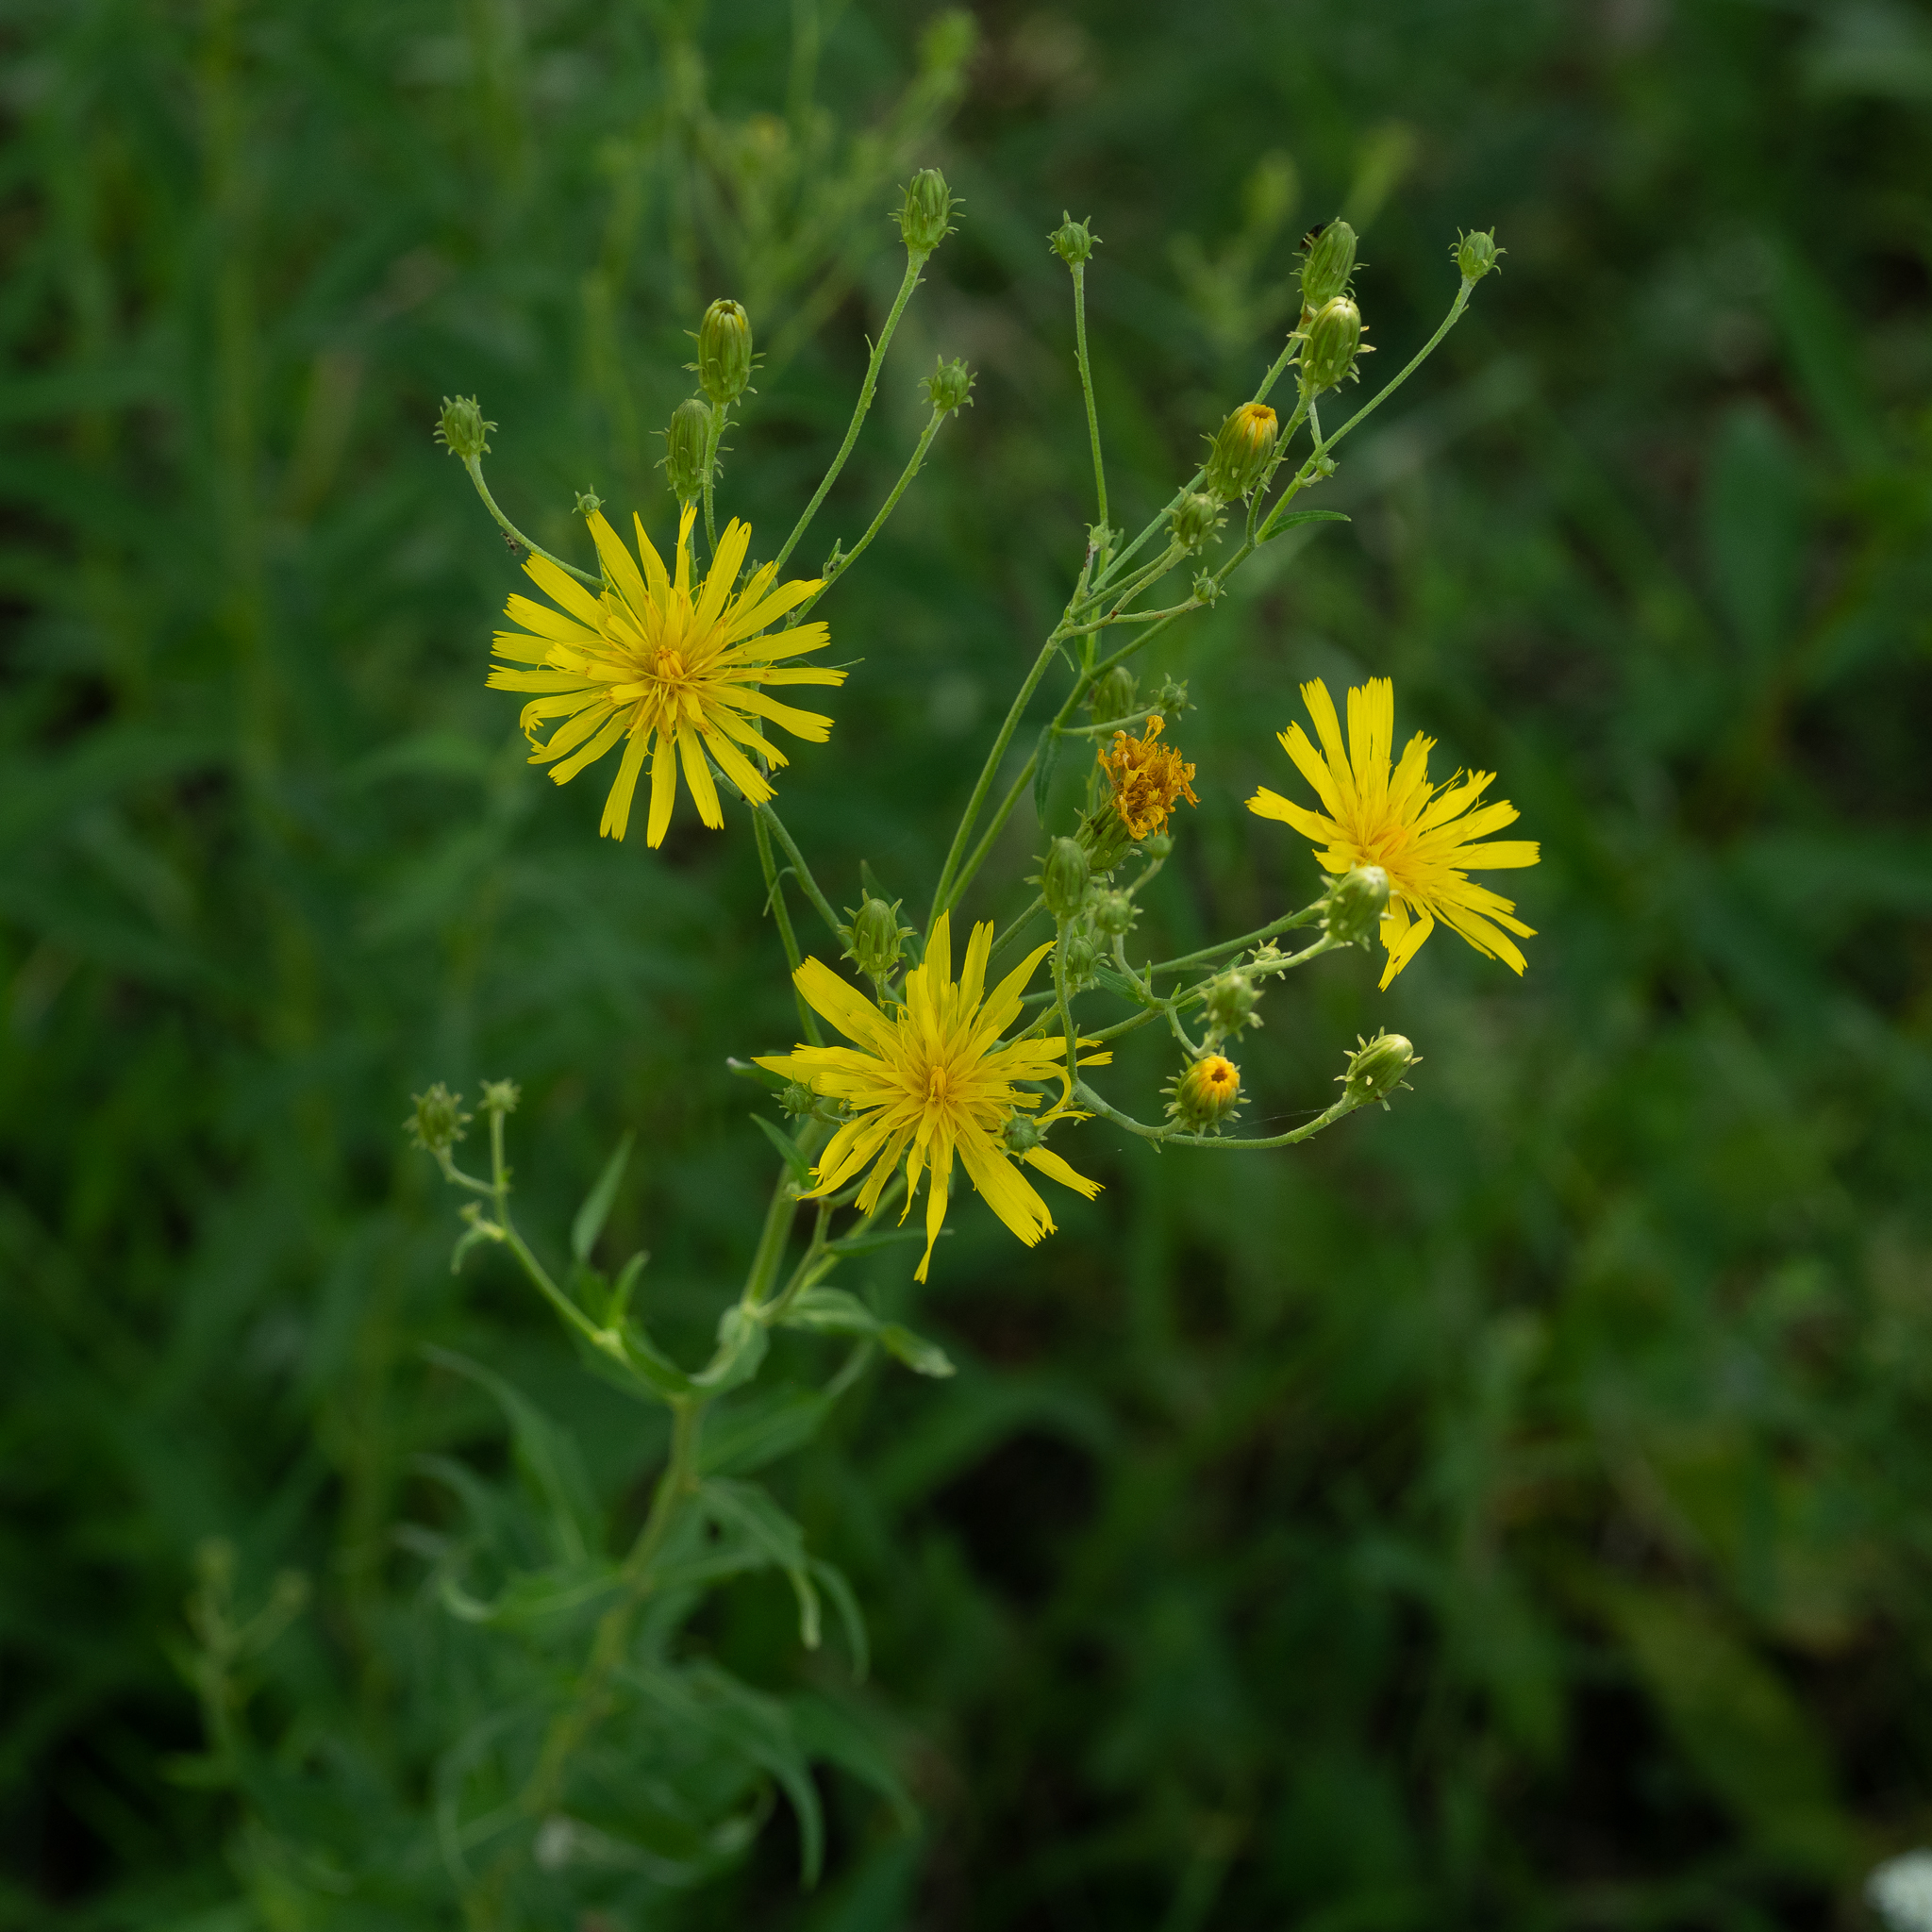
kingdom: Plantae
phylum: Tracheophyta
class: Magnoliopsida
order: Asterales
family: Asteraceae
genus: Hieracium
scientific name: Hieracium umbellatum
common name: Northern hawkweed
